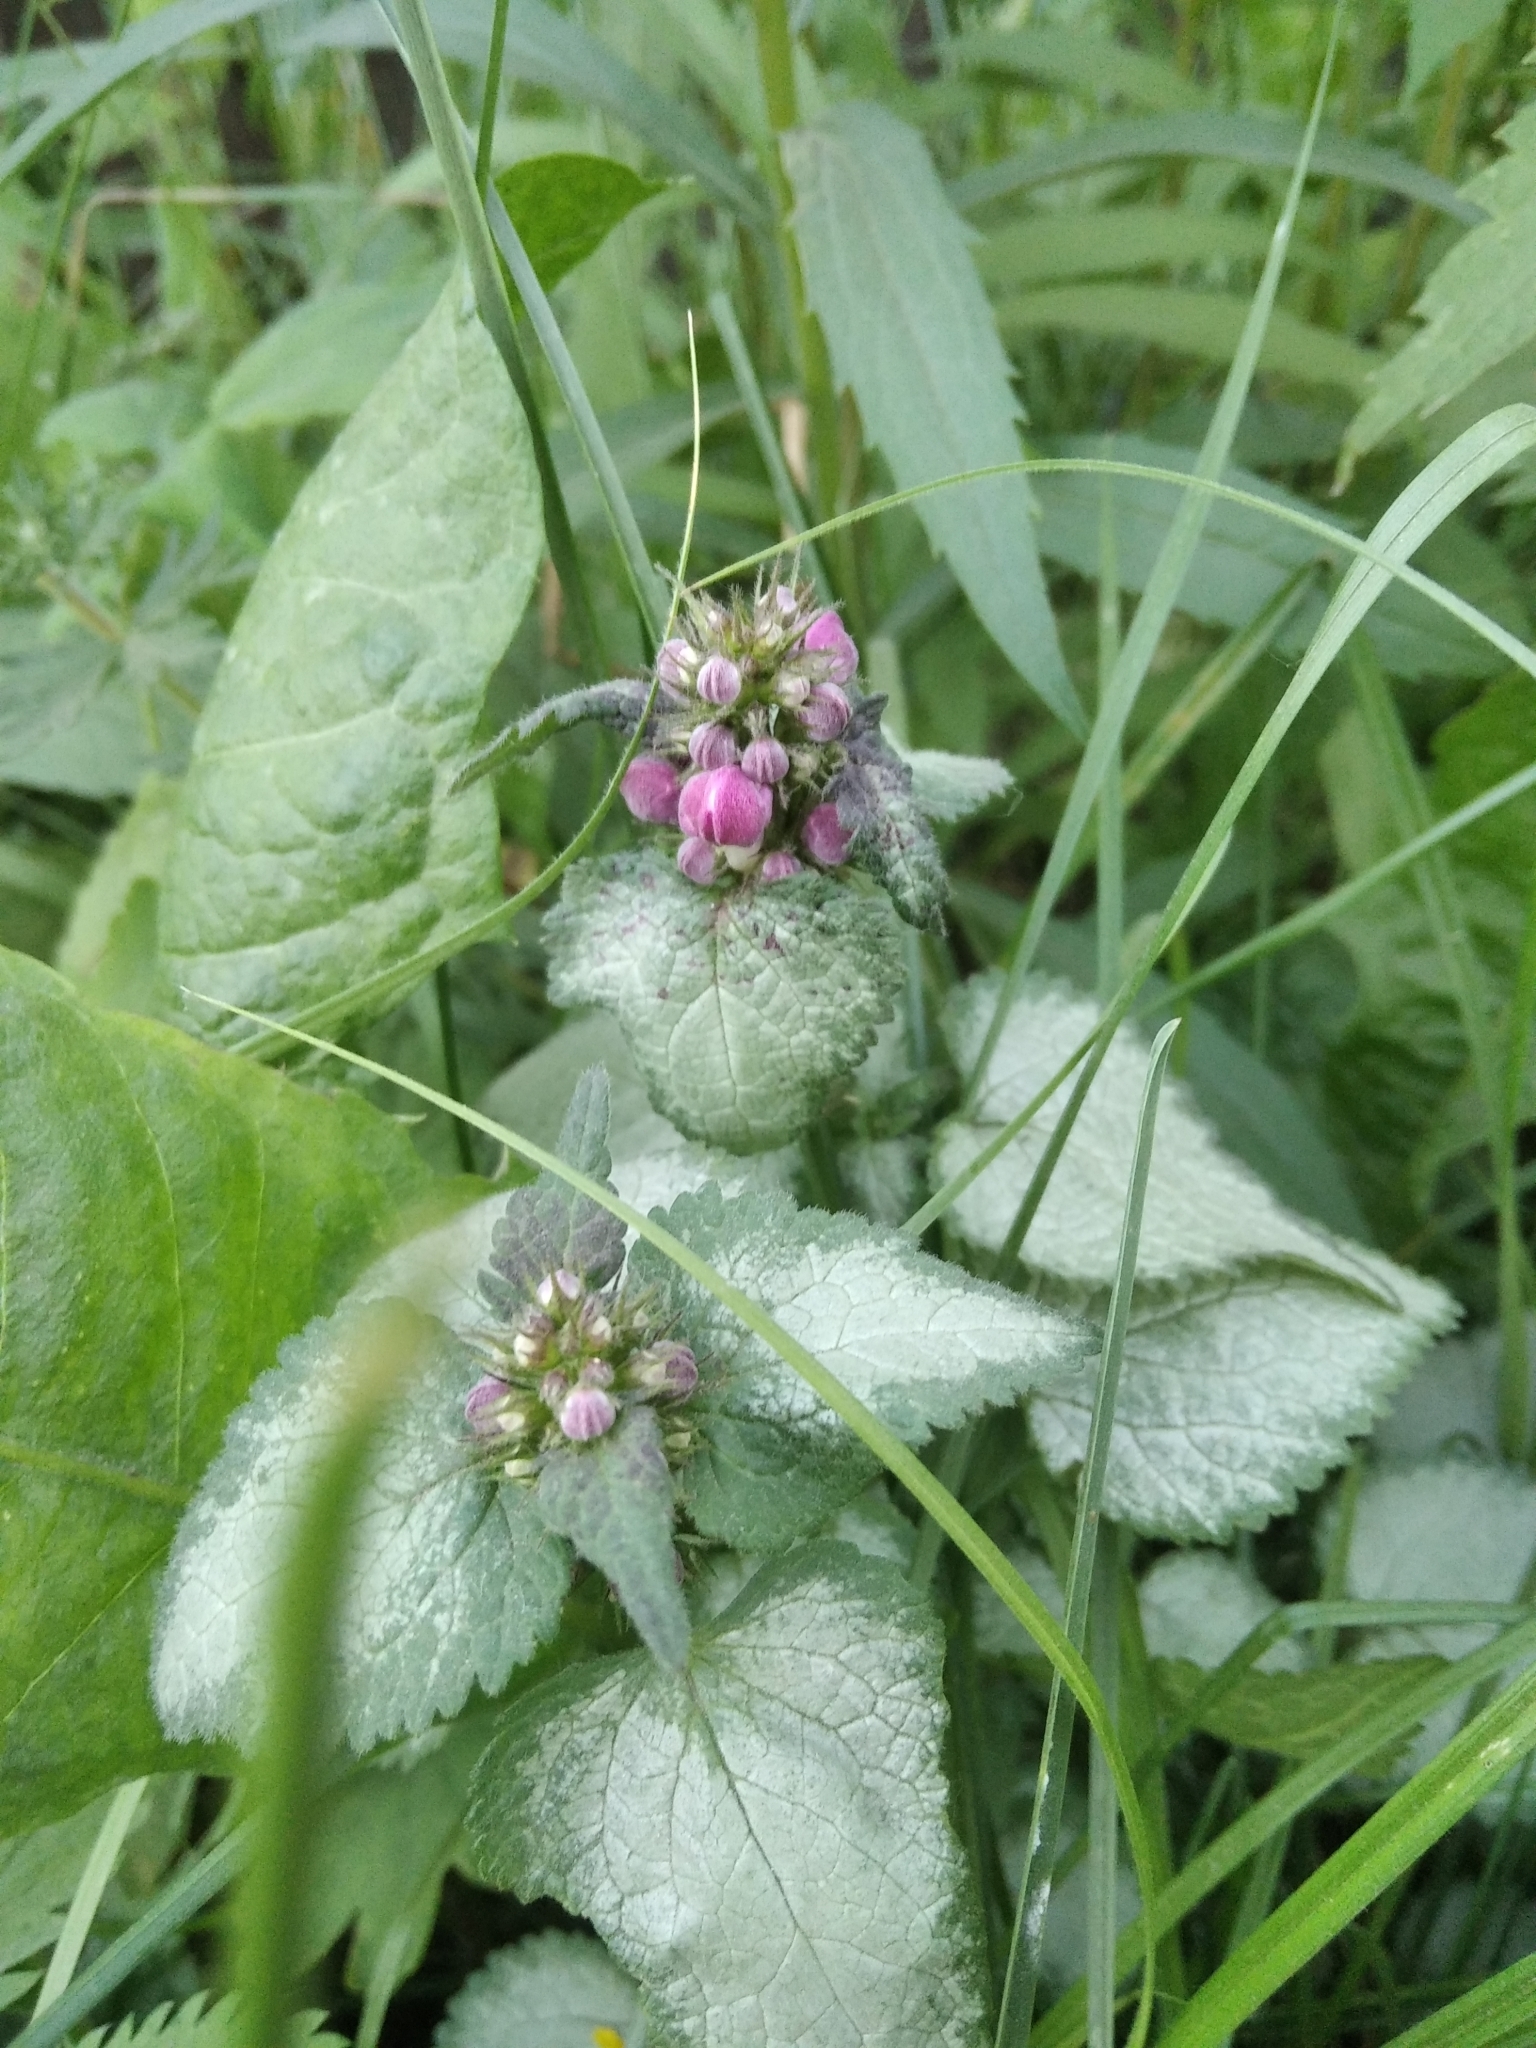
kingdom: Plantae
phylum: Tracheophyta
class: Magnoliopsida
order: Lamiales
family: Lamiaceae
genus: Lamium
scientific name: Lamium maculatum
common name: Spotted dead-nettle
